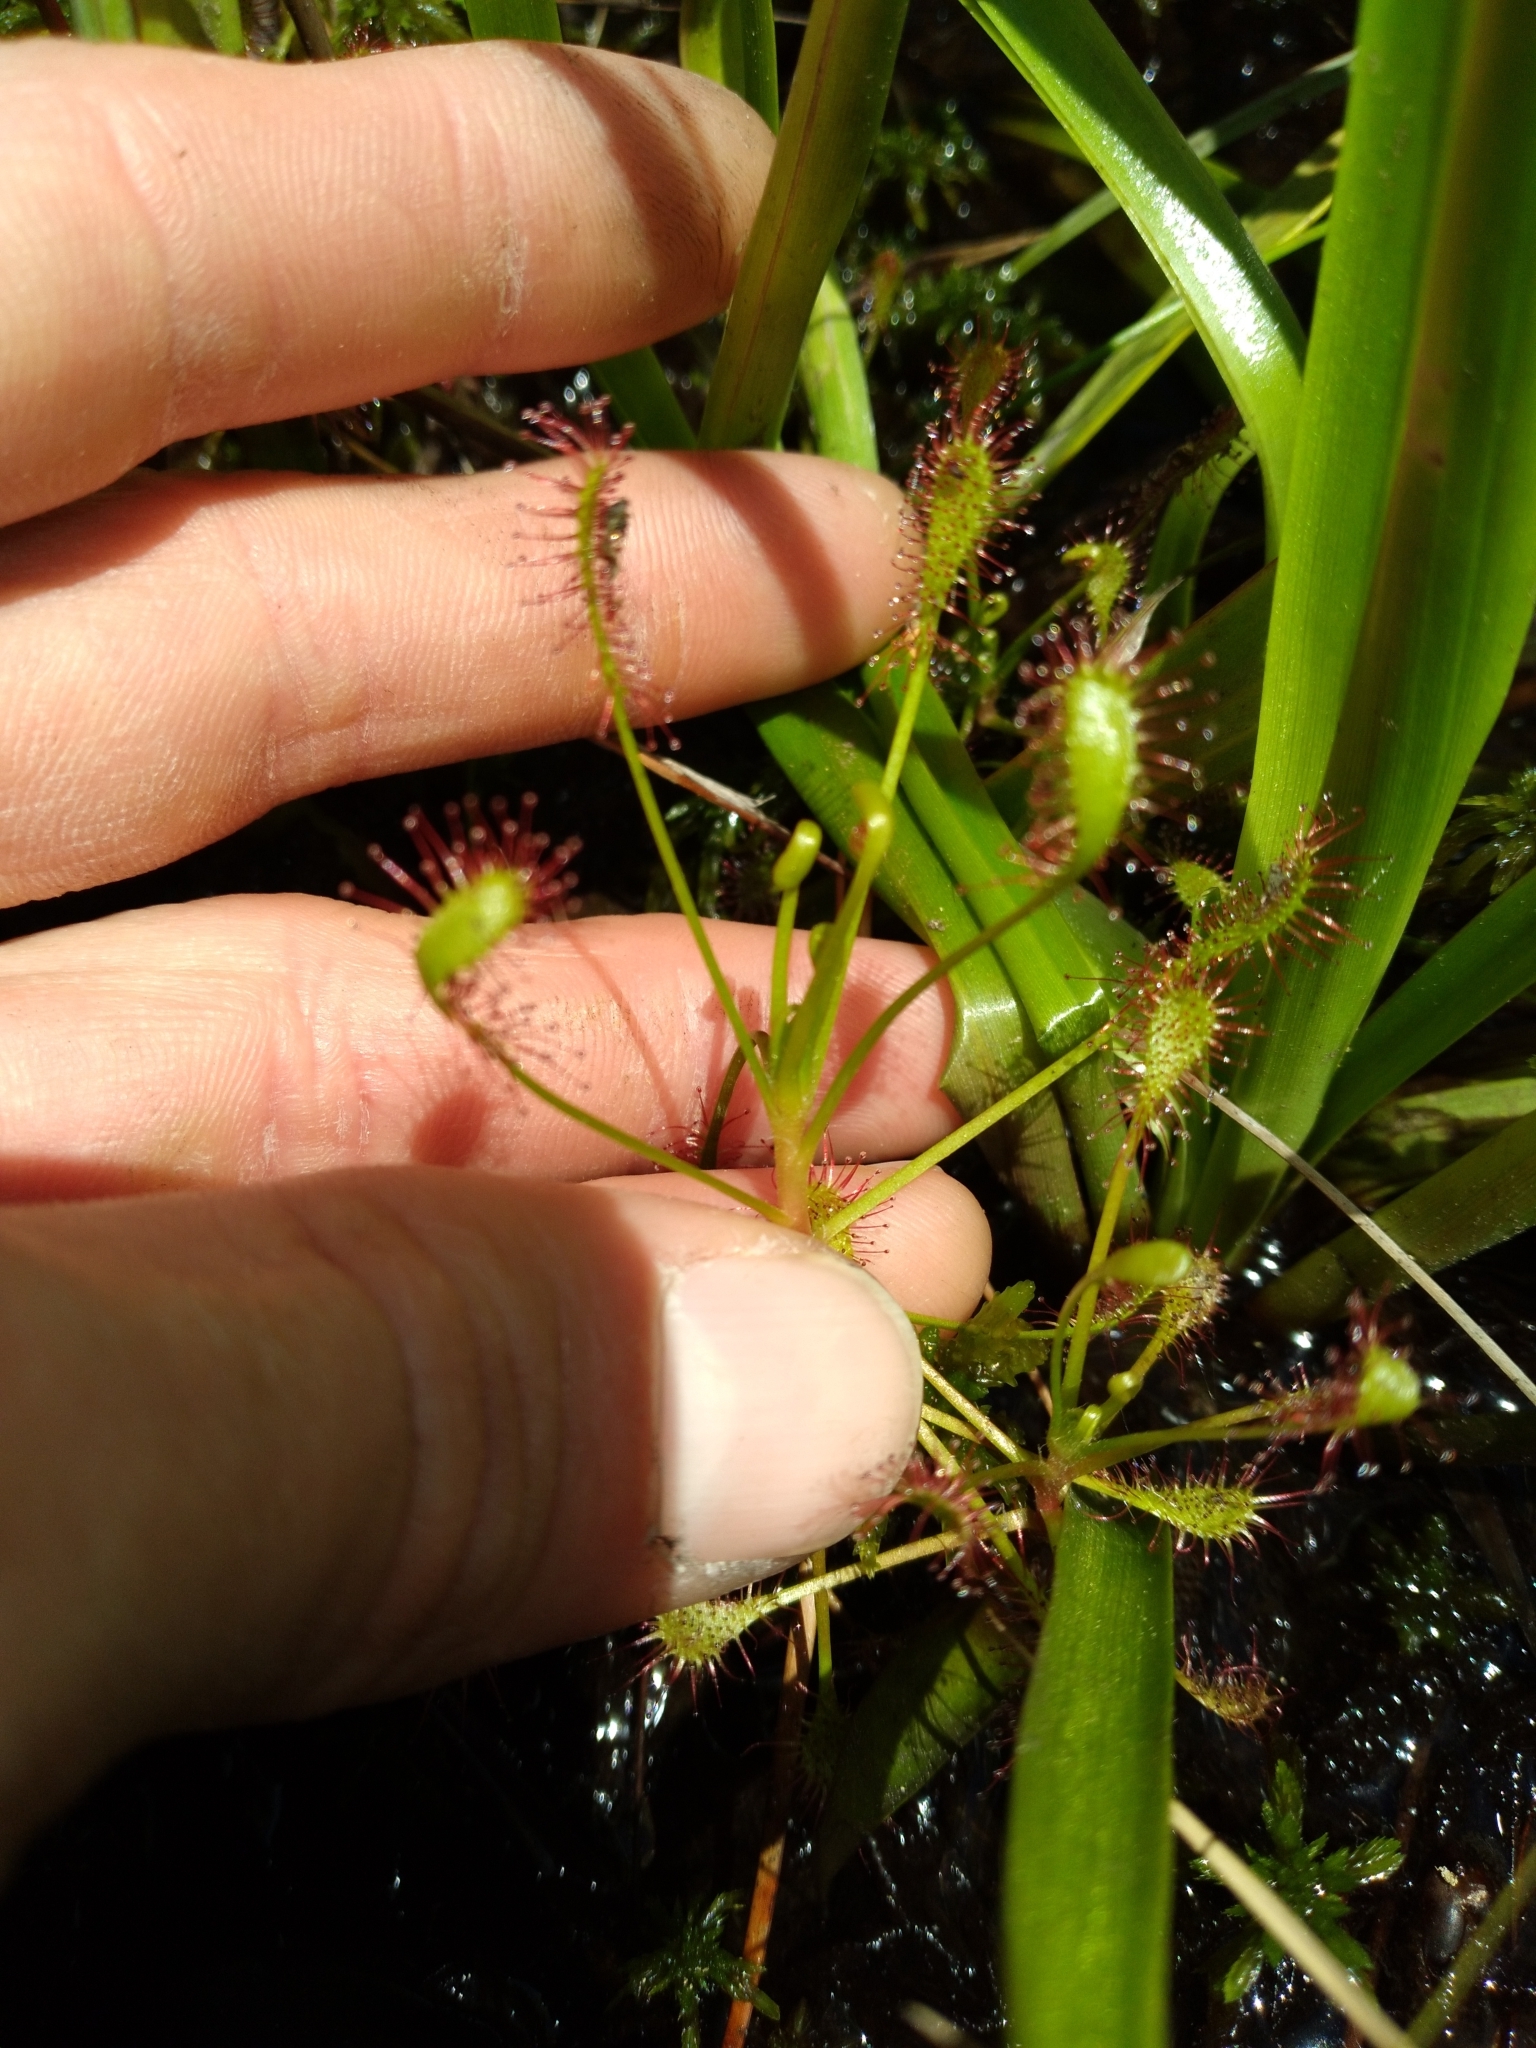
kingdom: Plantae
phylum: Tracheophyta
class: Magnoliopsida
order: Caryophyllales
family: Droseraceae
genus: Drosera
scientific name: Drosera intermedia
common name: Oblong-leaved sundew
